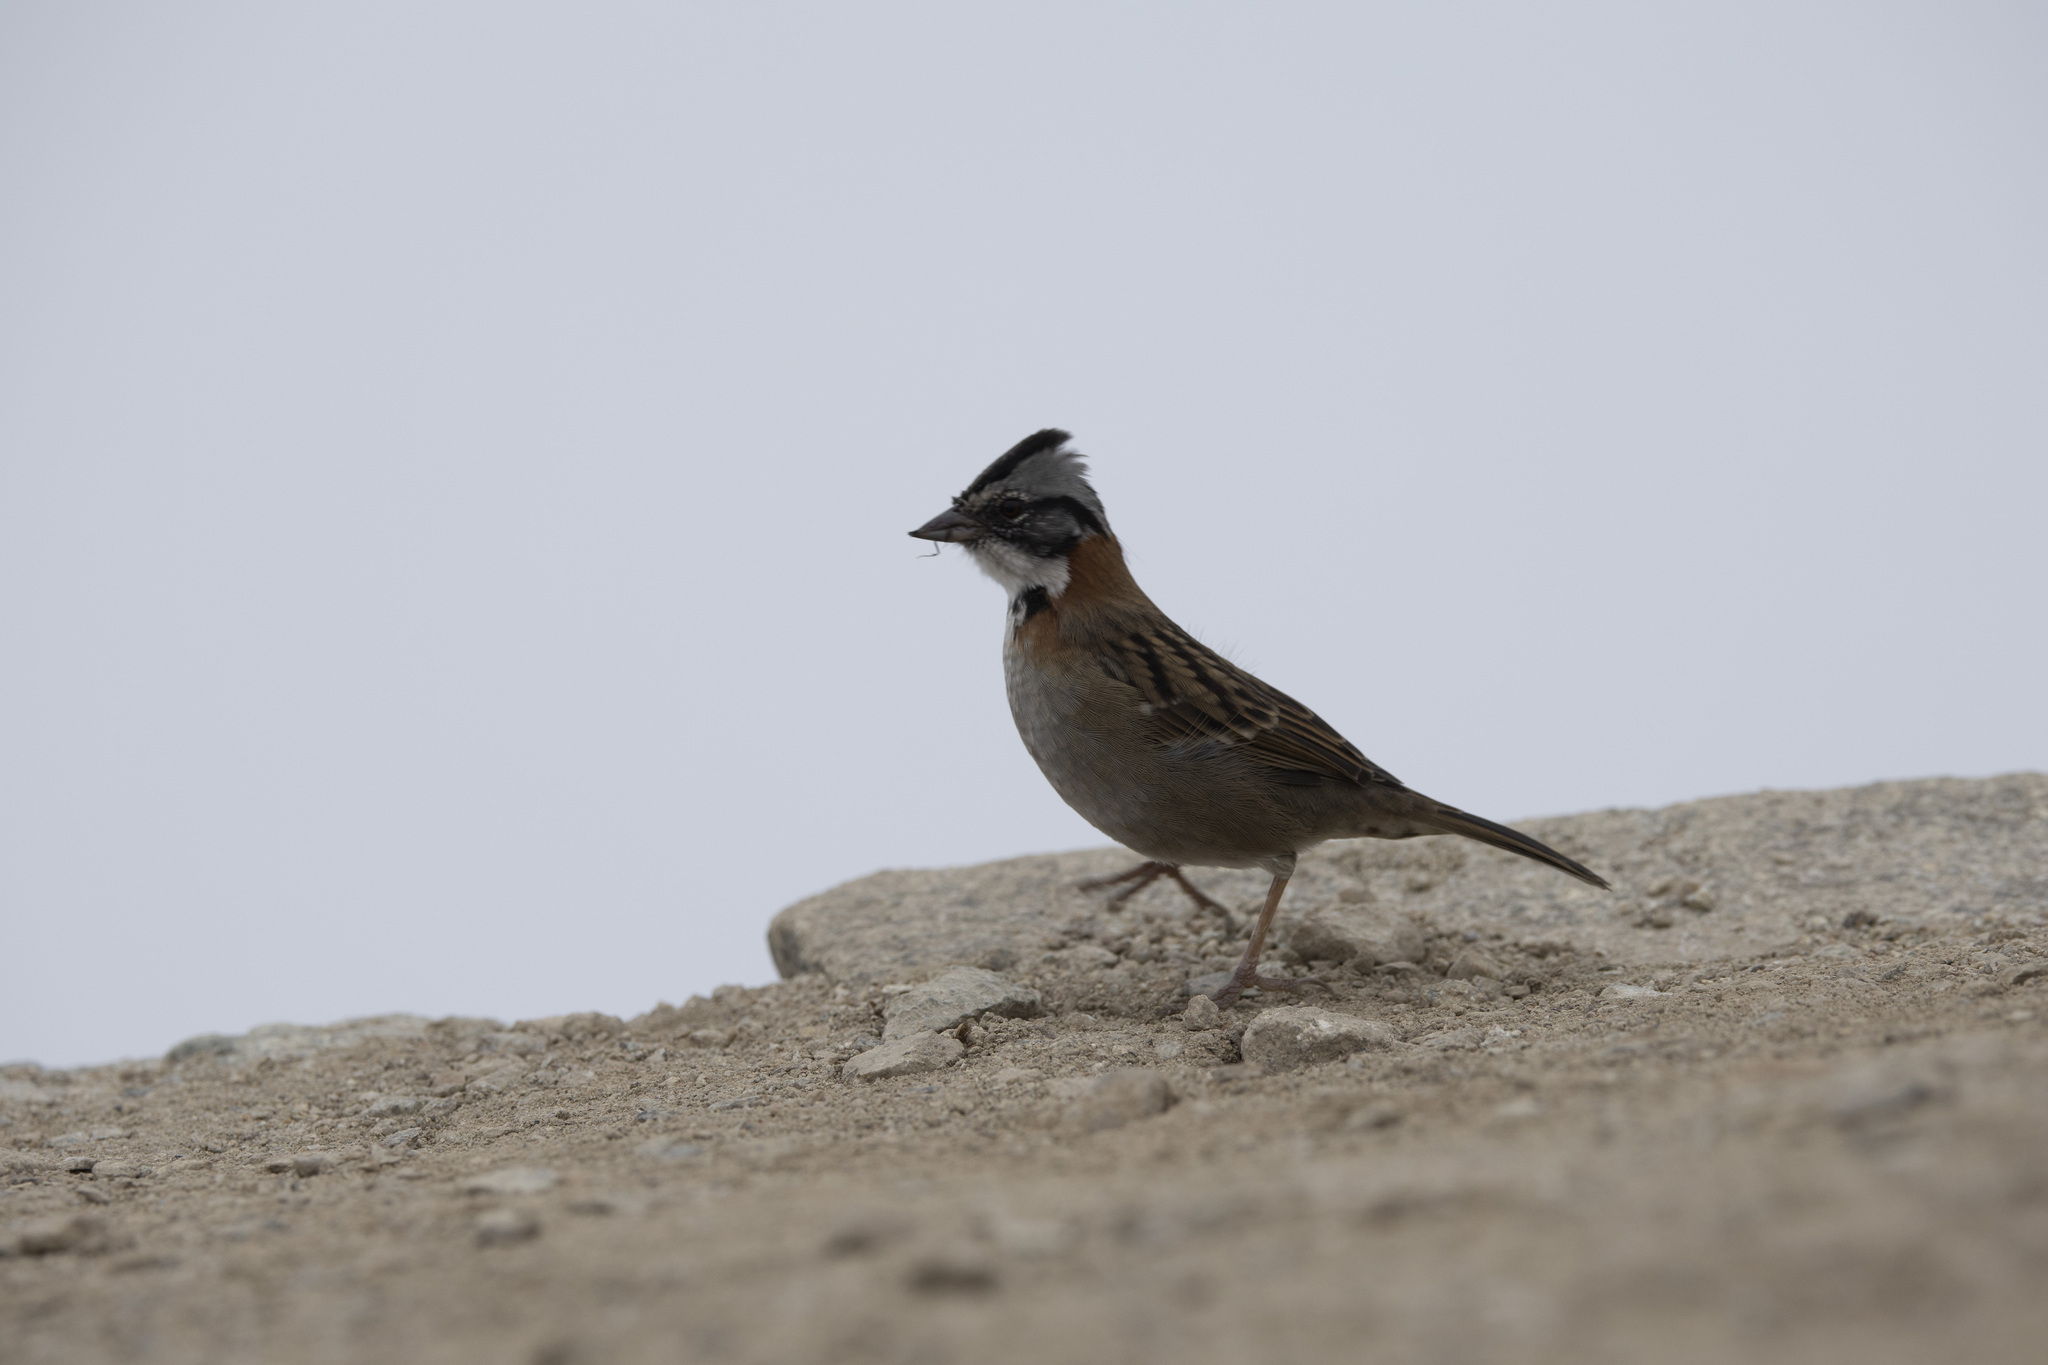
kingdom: Animalia
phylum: Chordata
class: Aves
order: Passeriformes
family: Passerellidae
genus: Zonotrichia
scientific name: Zonotrichia capensis
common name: Rufous-collared sparrow
